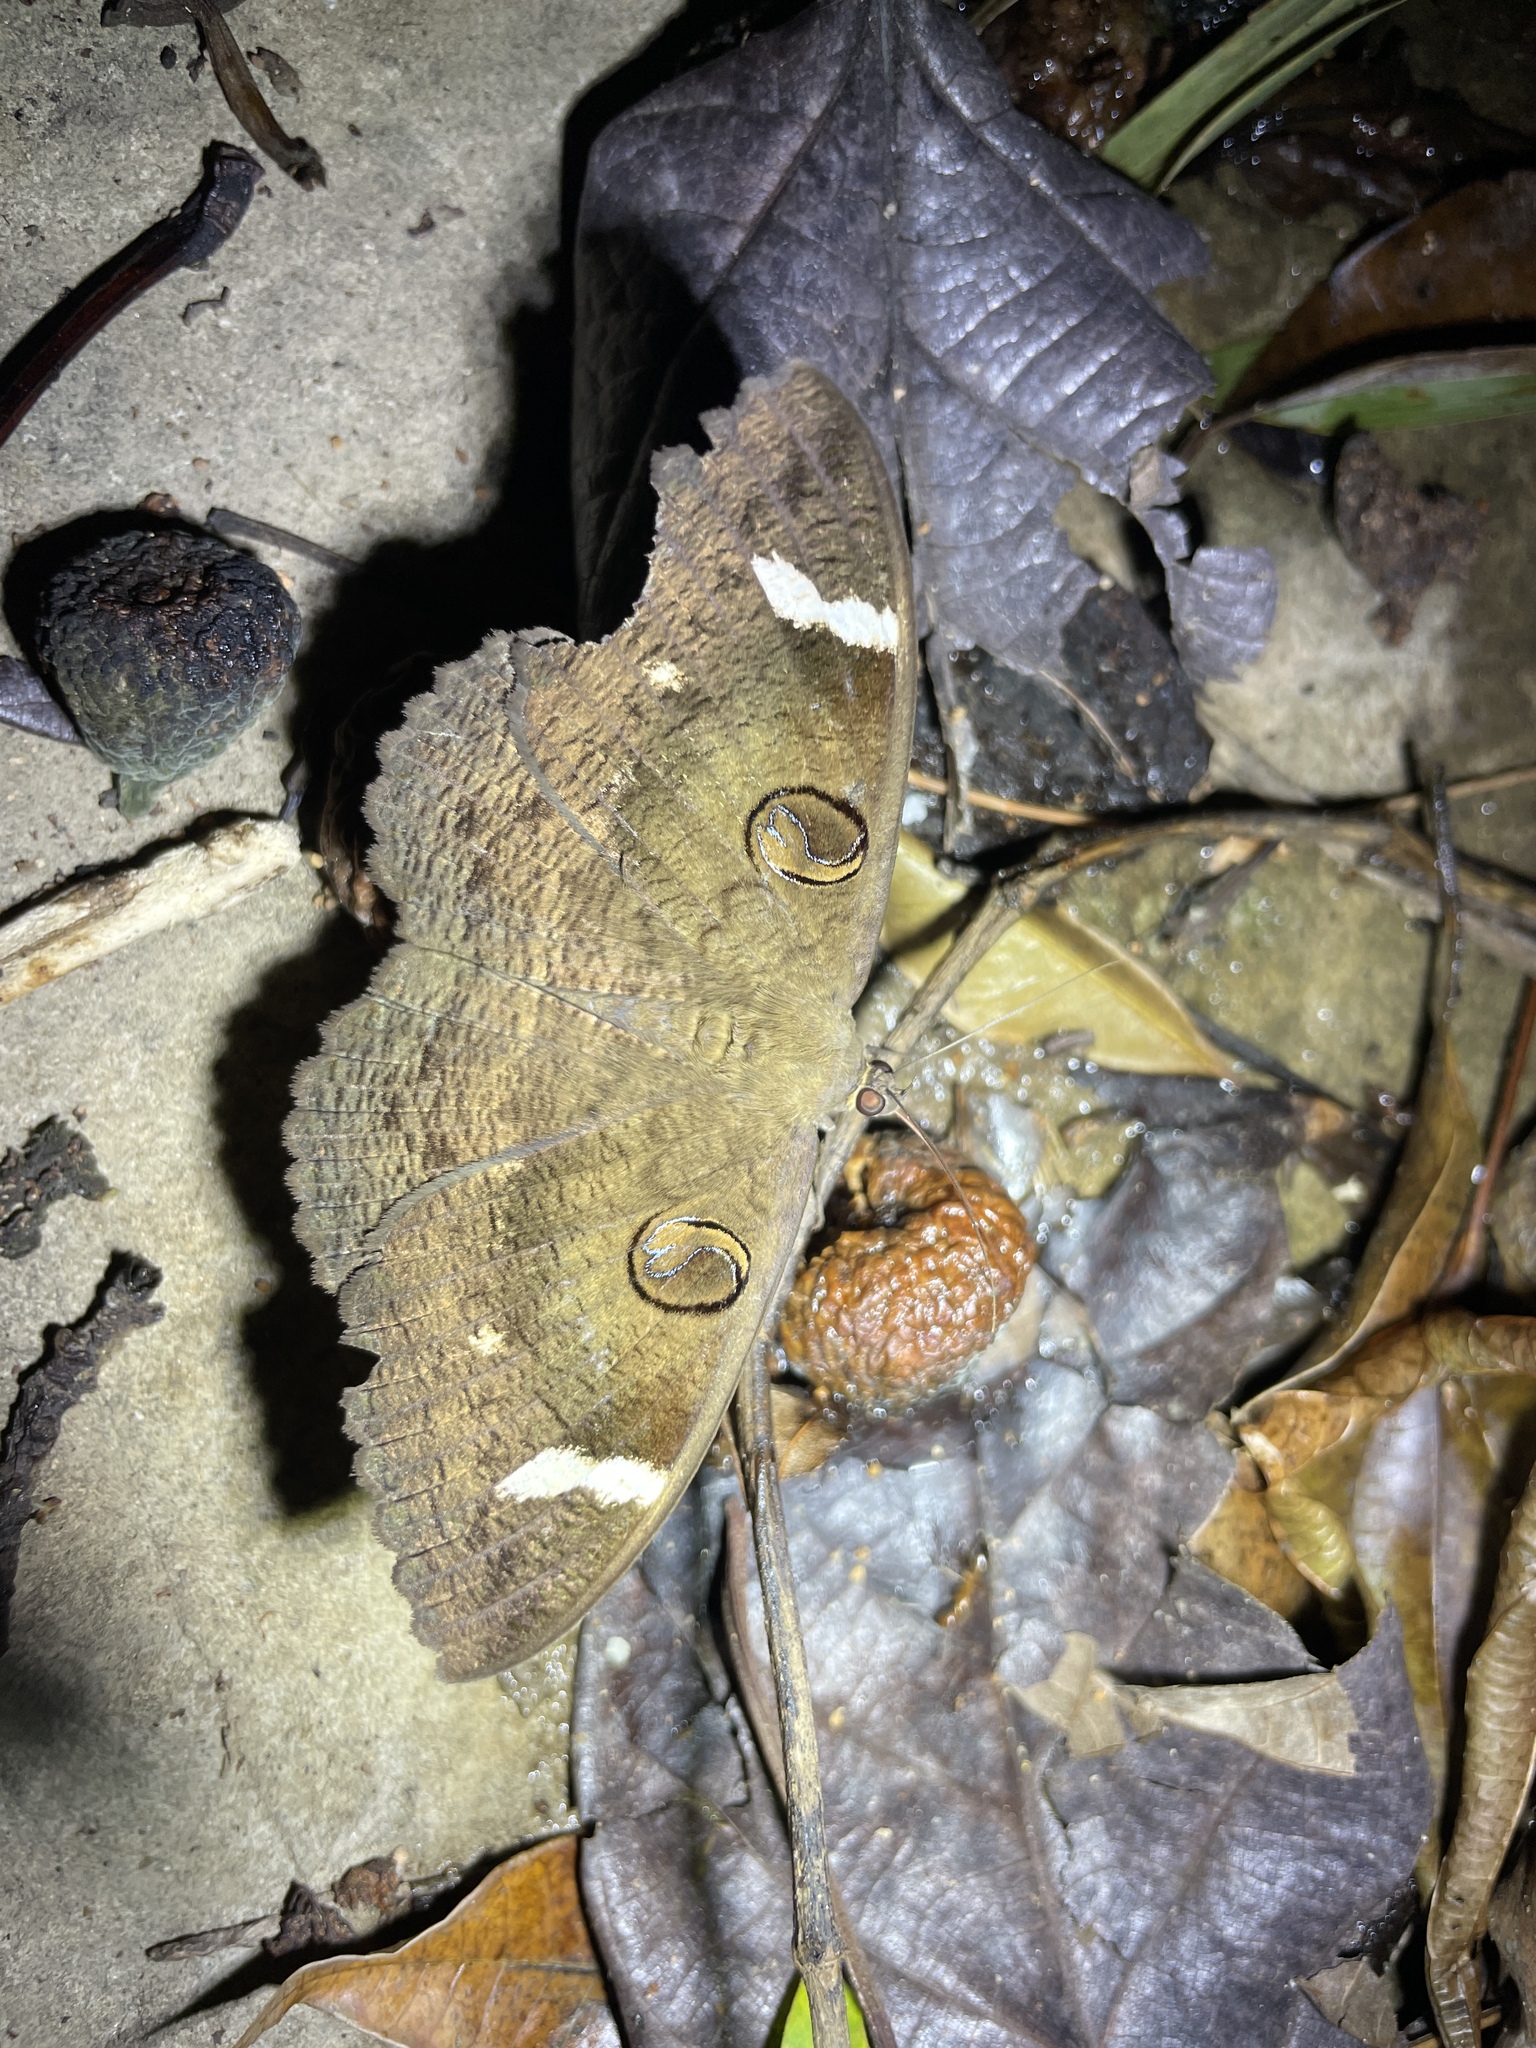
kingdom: Animalia
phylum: Arthropoda
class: Insecta
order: Lepidoptera
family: Erebidae
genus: Erebus
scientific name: Erebus hieroglyphica
